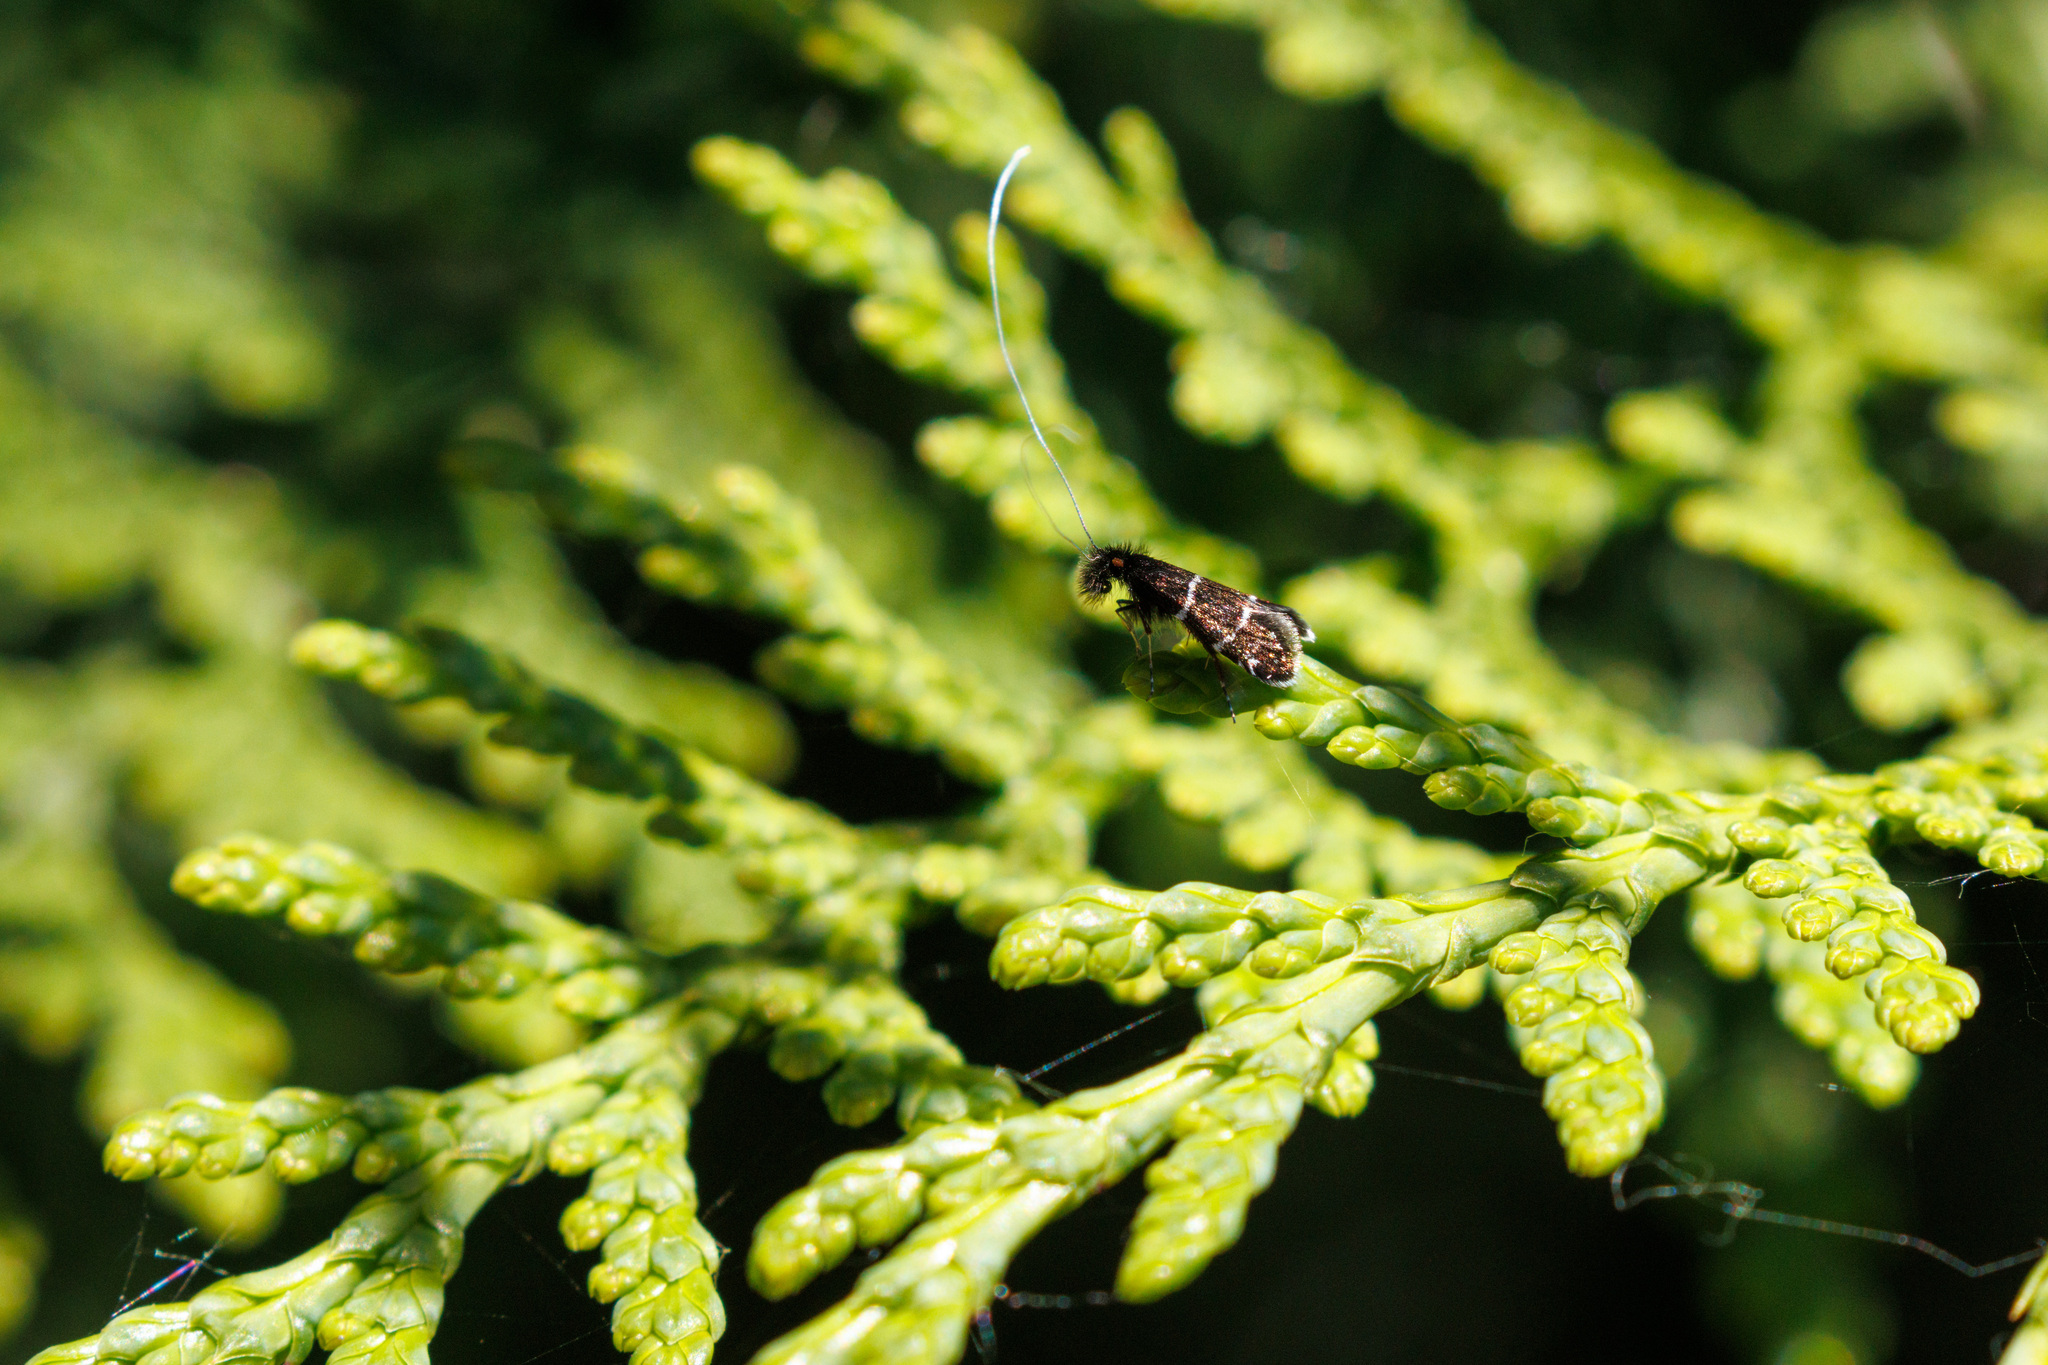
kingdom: Animalia
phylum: Arthropoda
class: Insecta
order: Lepidoptera
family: Adelidae
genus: Adela
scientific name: Adela septentrionella
